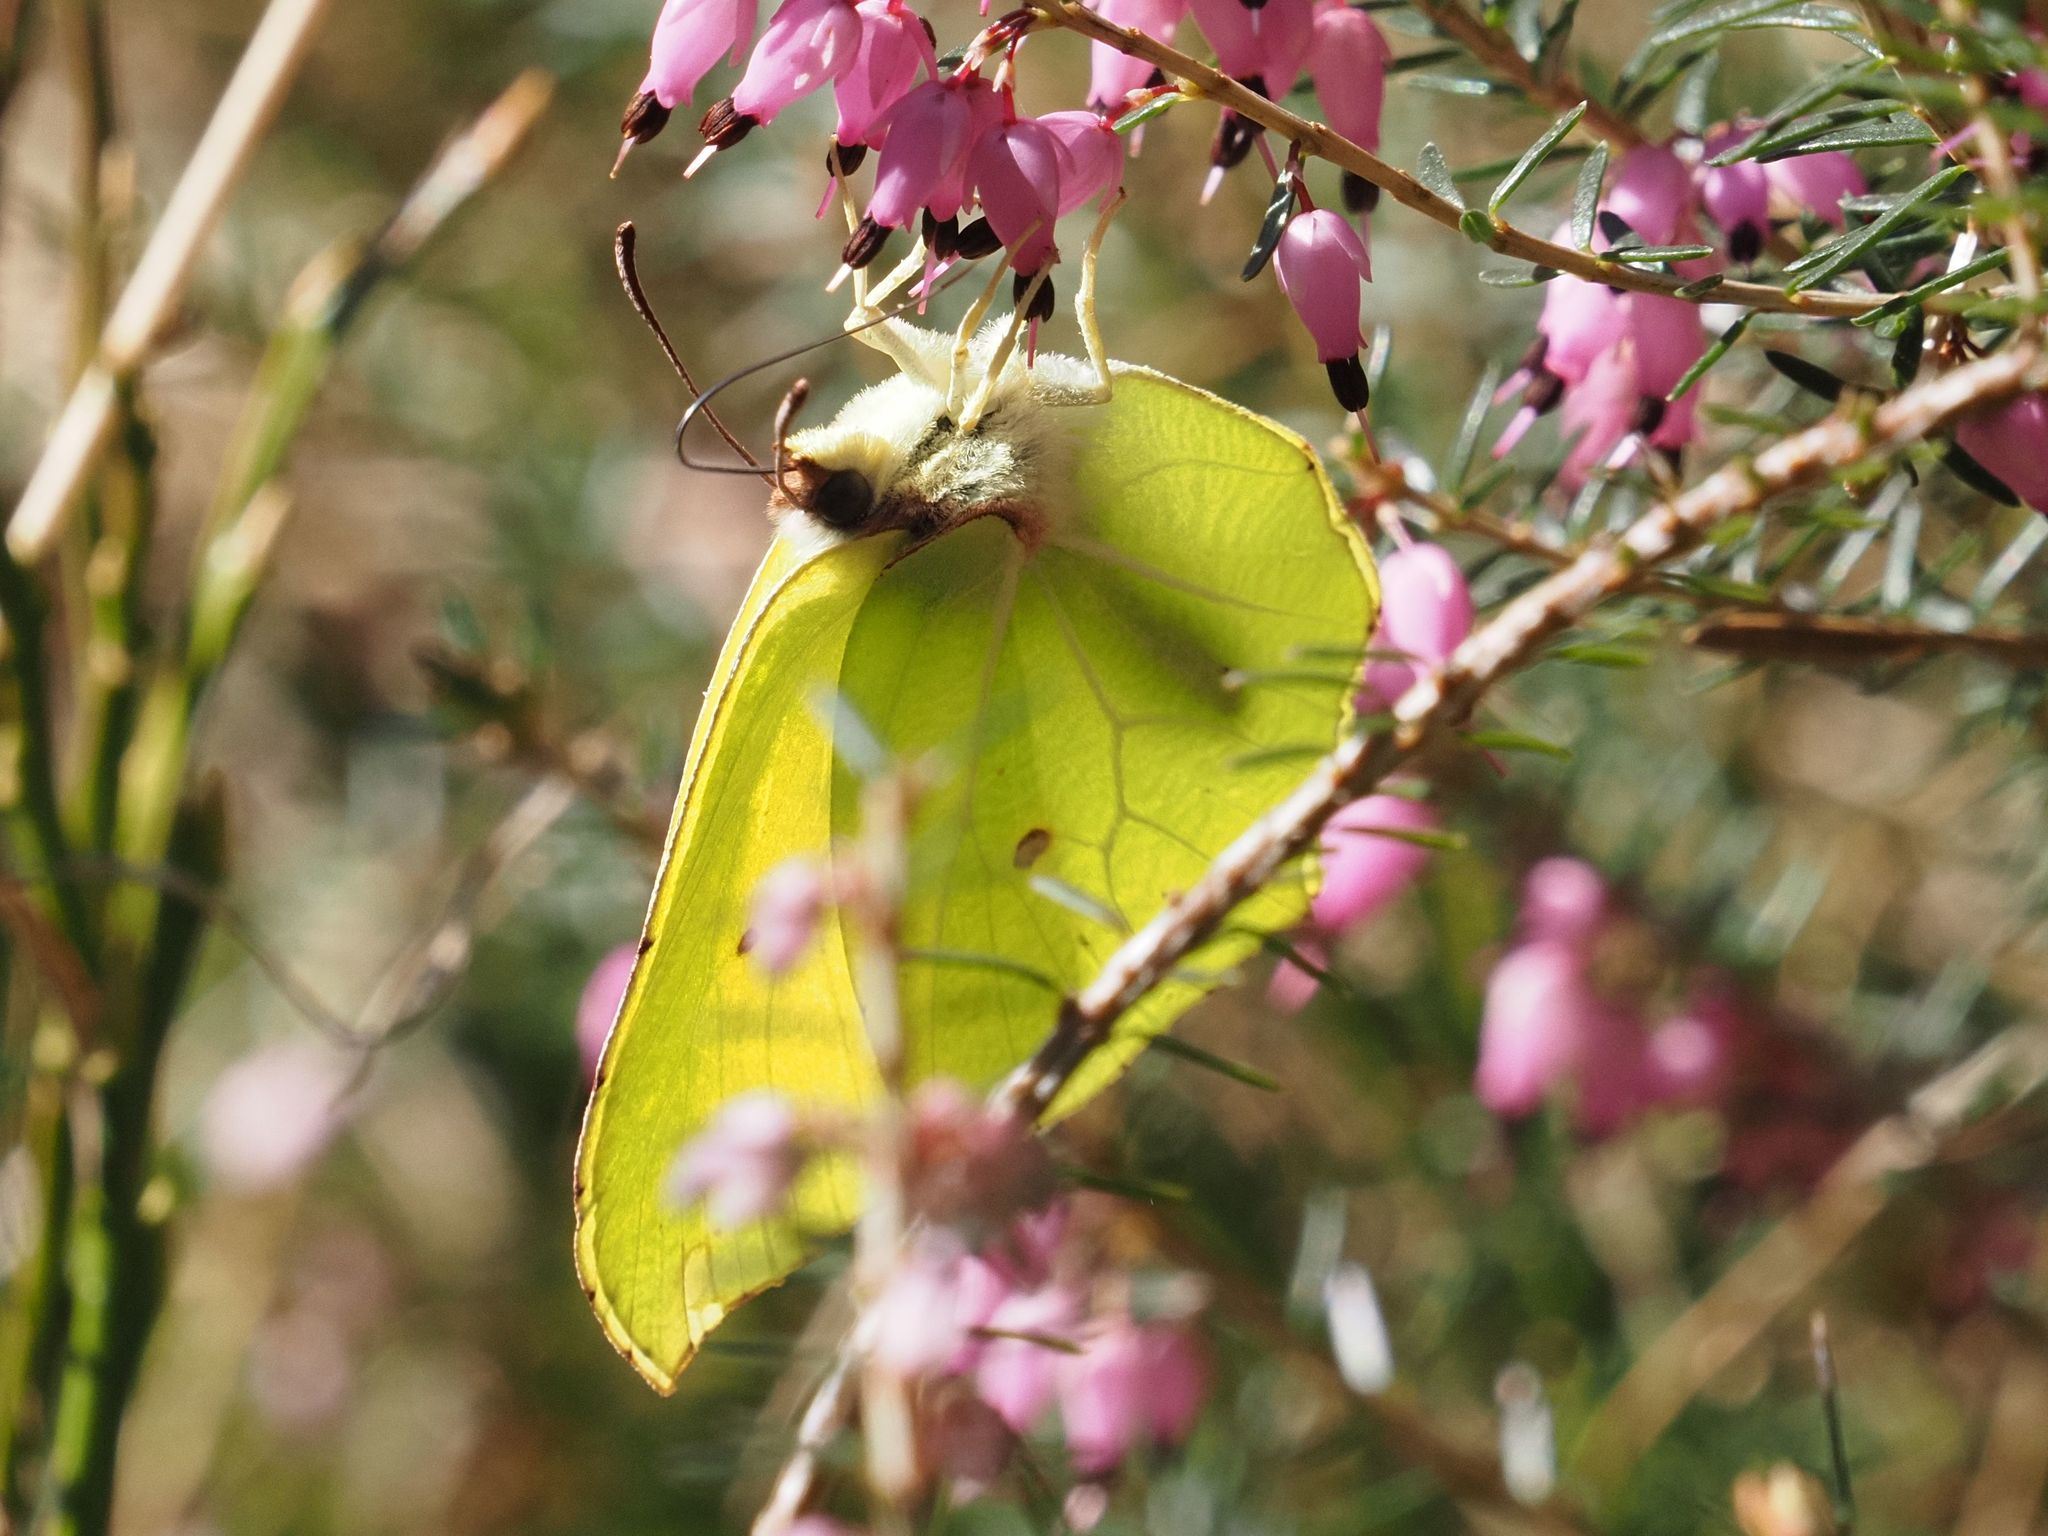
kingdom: Animalia
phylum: Arthropoda
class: Insecta
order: Lepidoptera
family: Pieridae
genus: Gonepteryx
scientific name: Gonepteryx rhamni
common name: Brimstone
